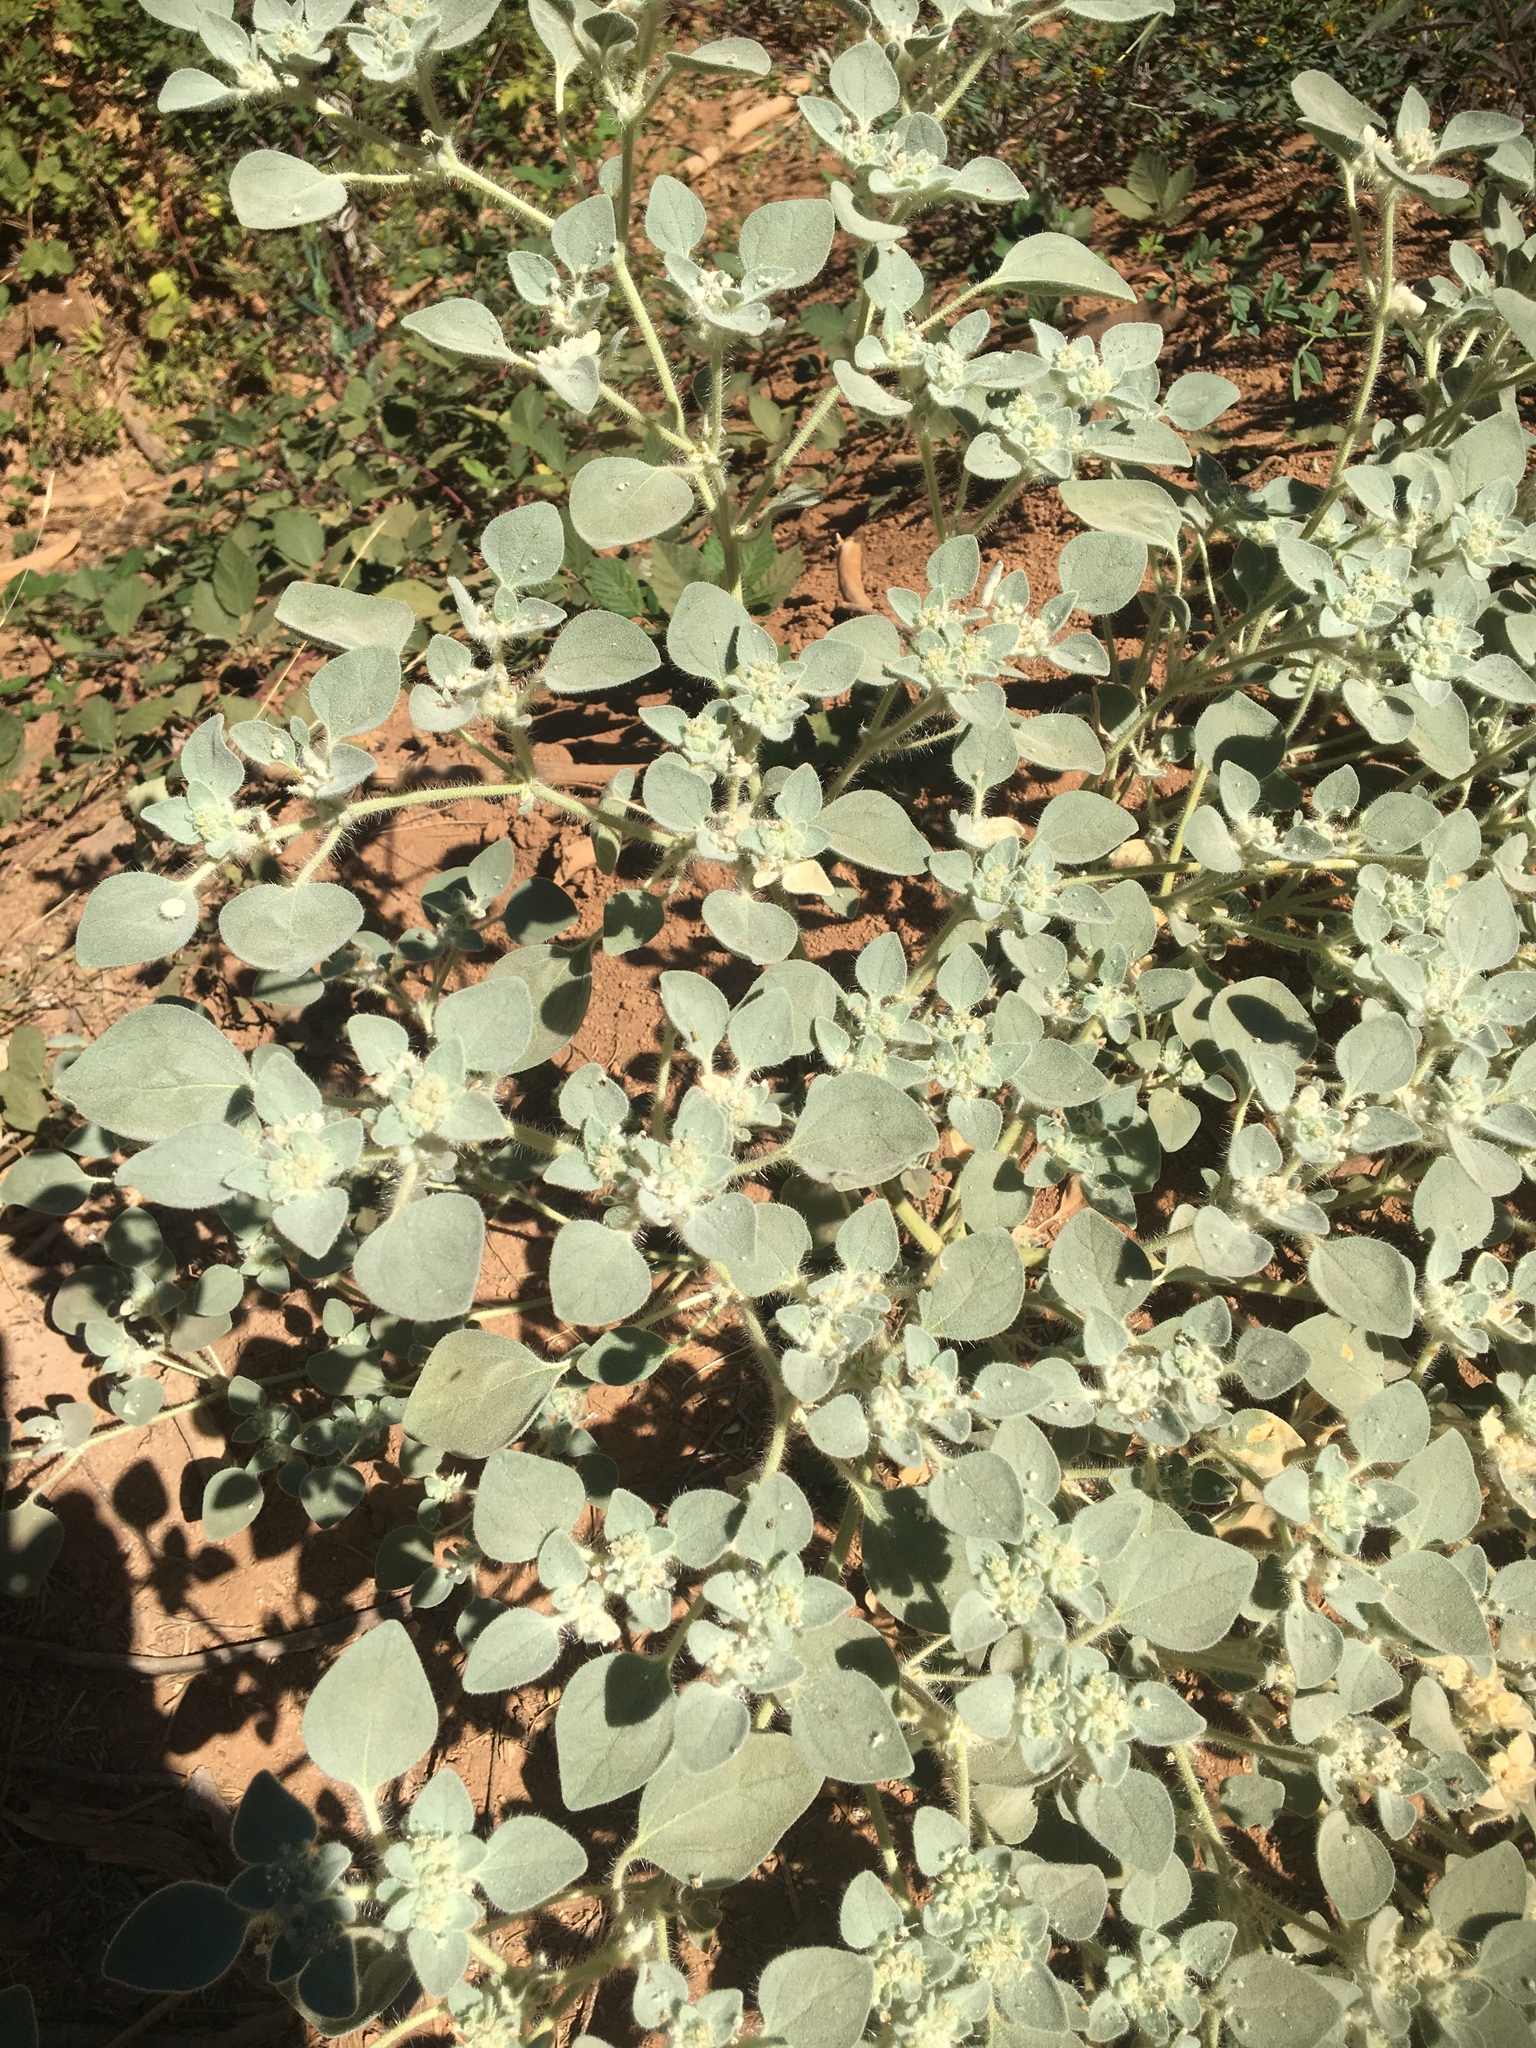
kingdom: Plantae
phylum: Tracheophyta
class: Magnoliopsida
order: Malpighiales
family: Euphorbiaceae
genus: Croton
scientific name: Croton setiger
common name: Dove weed
